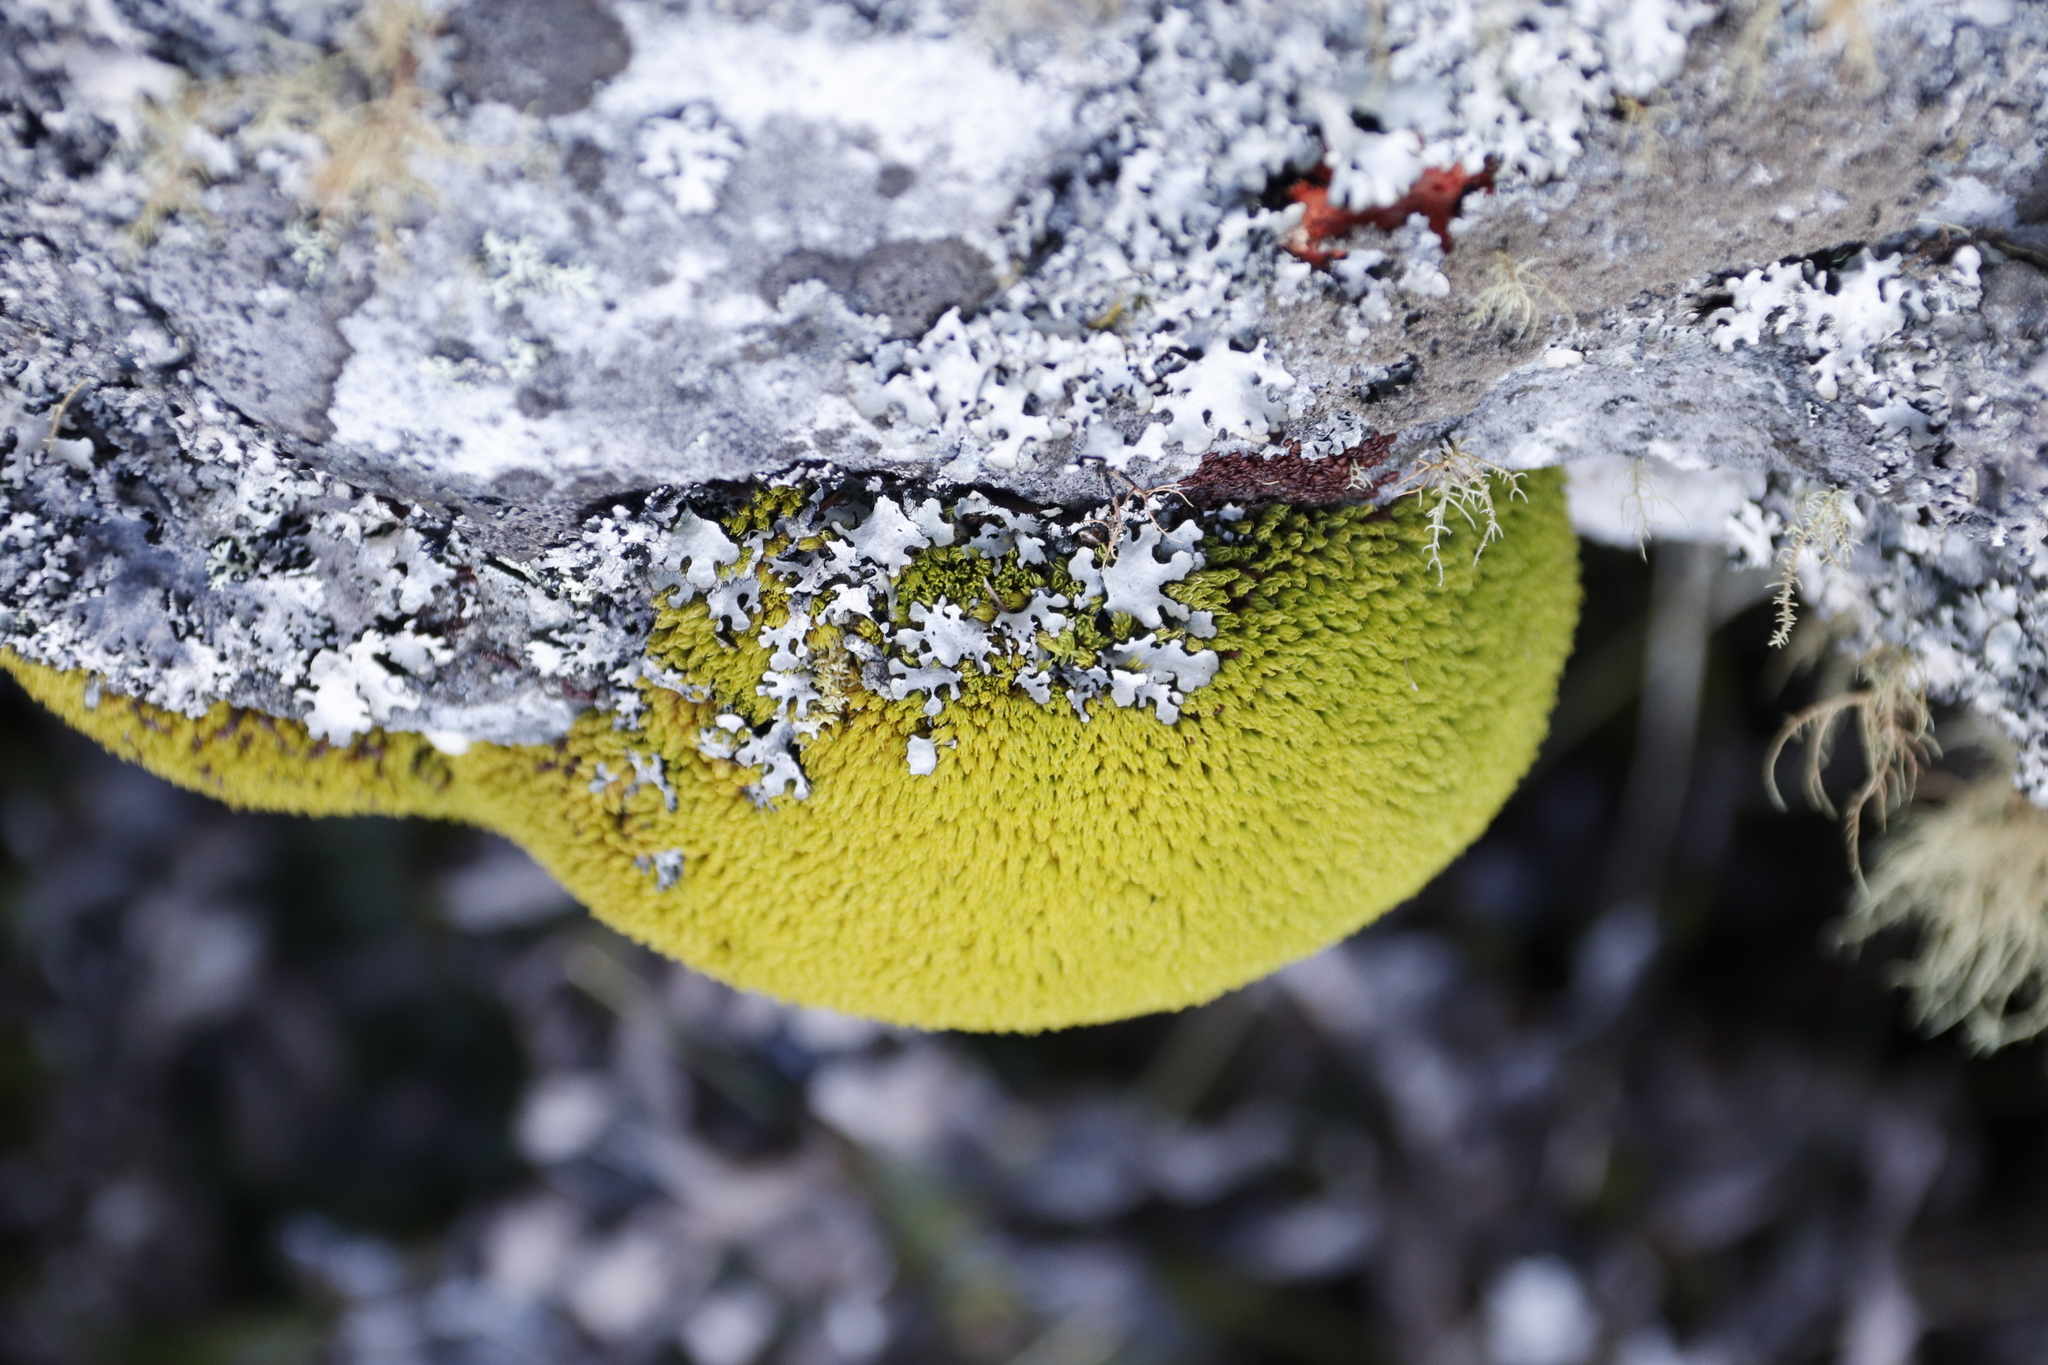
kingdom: Plantae
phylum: Bryophyta
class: Bryopsida
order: Dicranales
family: Hypodontiaceae
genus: Hypodontium
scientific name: Hypodontium pomiforme
